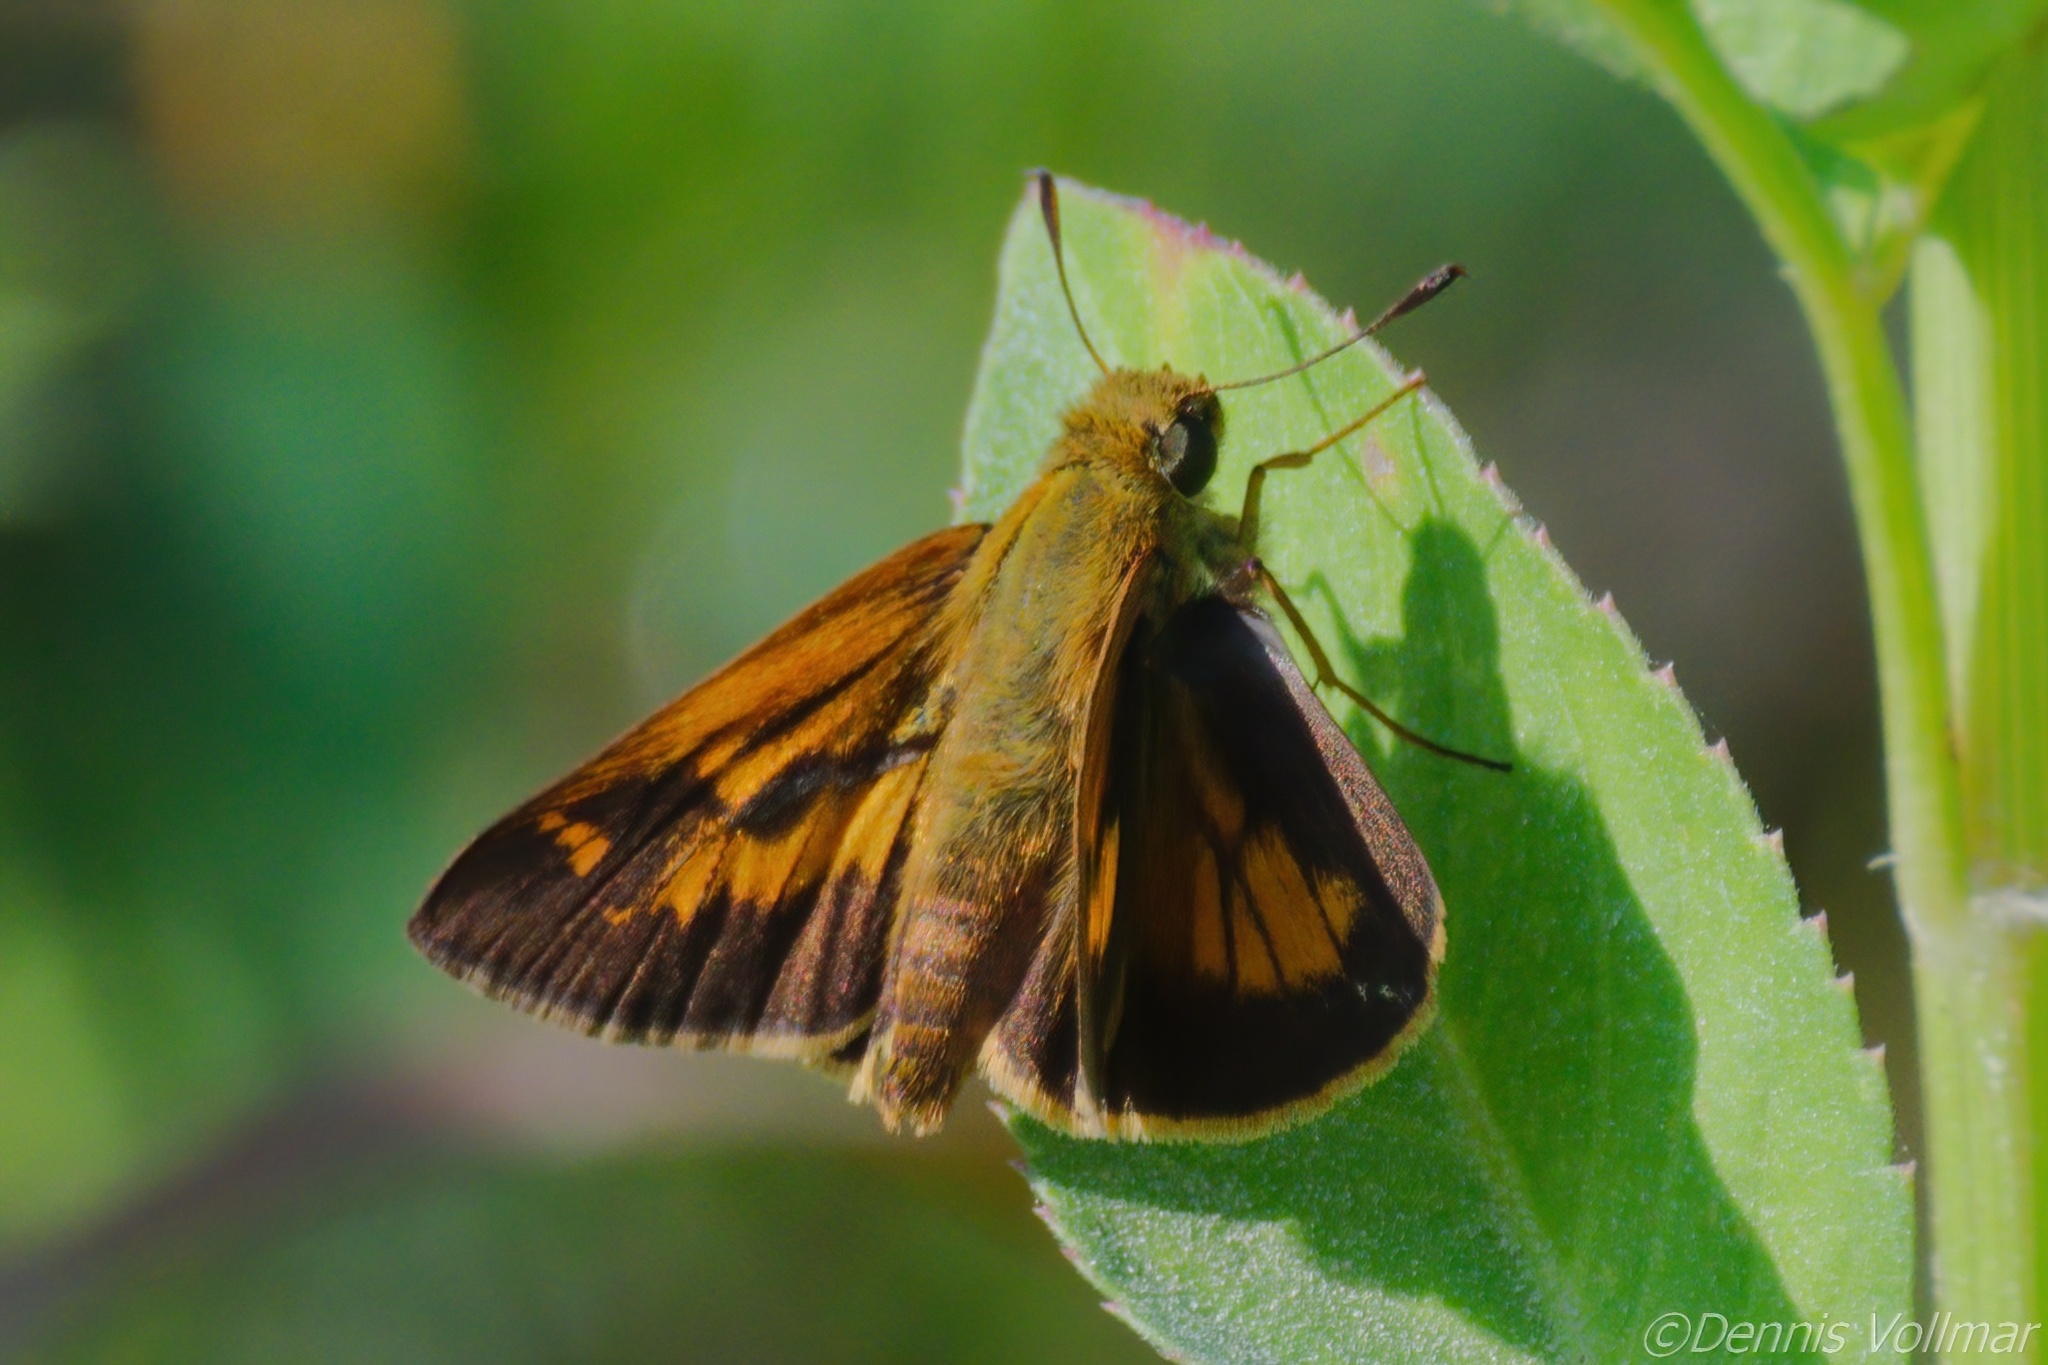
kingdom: Animalia
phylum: Arthropoda
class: Insecta
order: Lepidoptera
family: Hesperiidae
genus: Poanes
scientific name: Poanes yehl
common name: Yehl skipper
